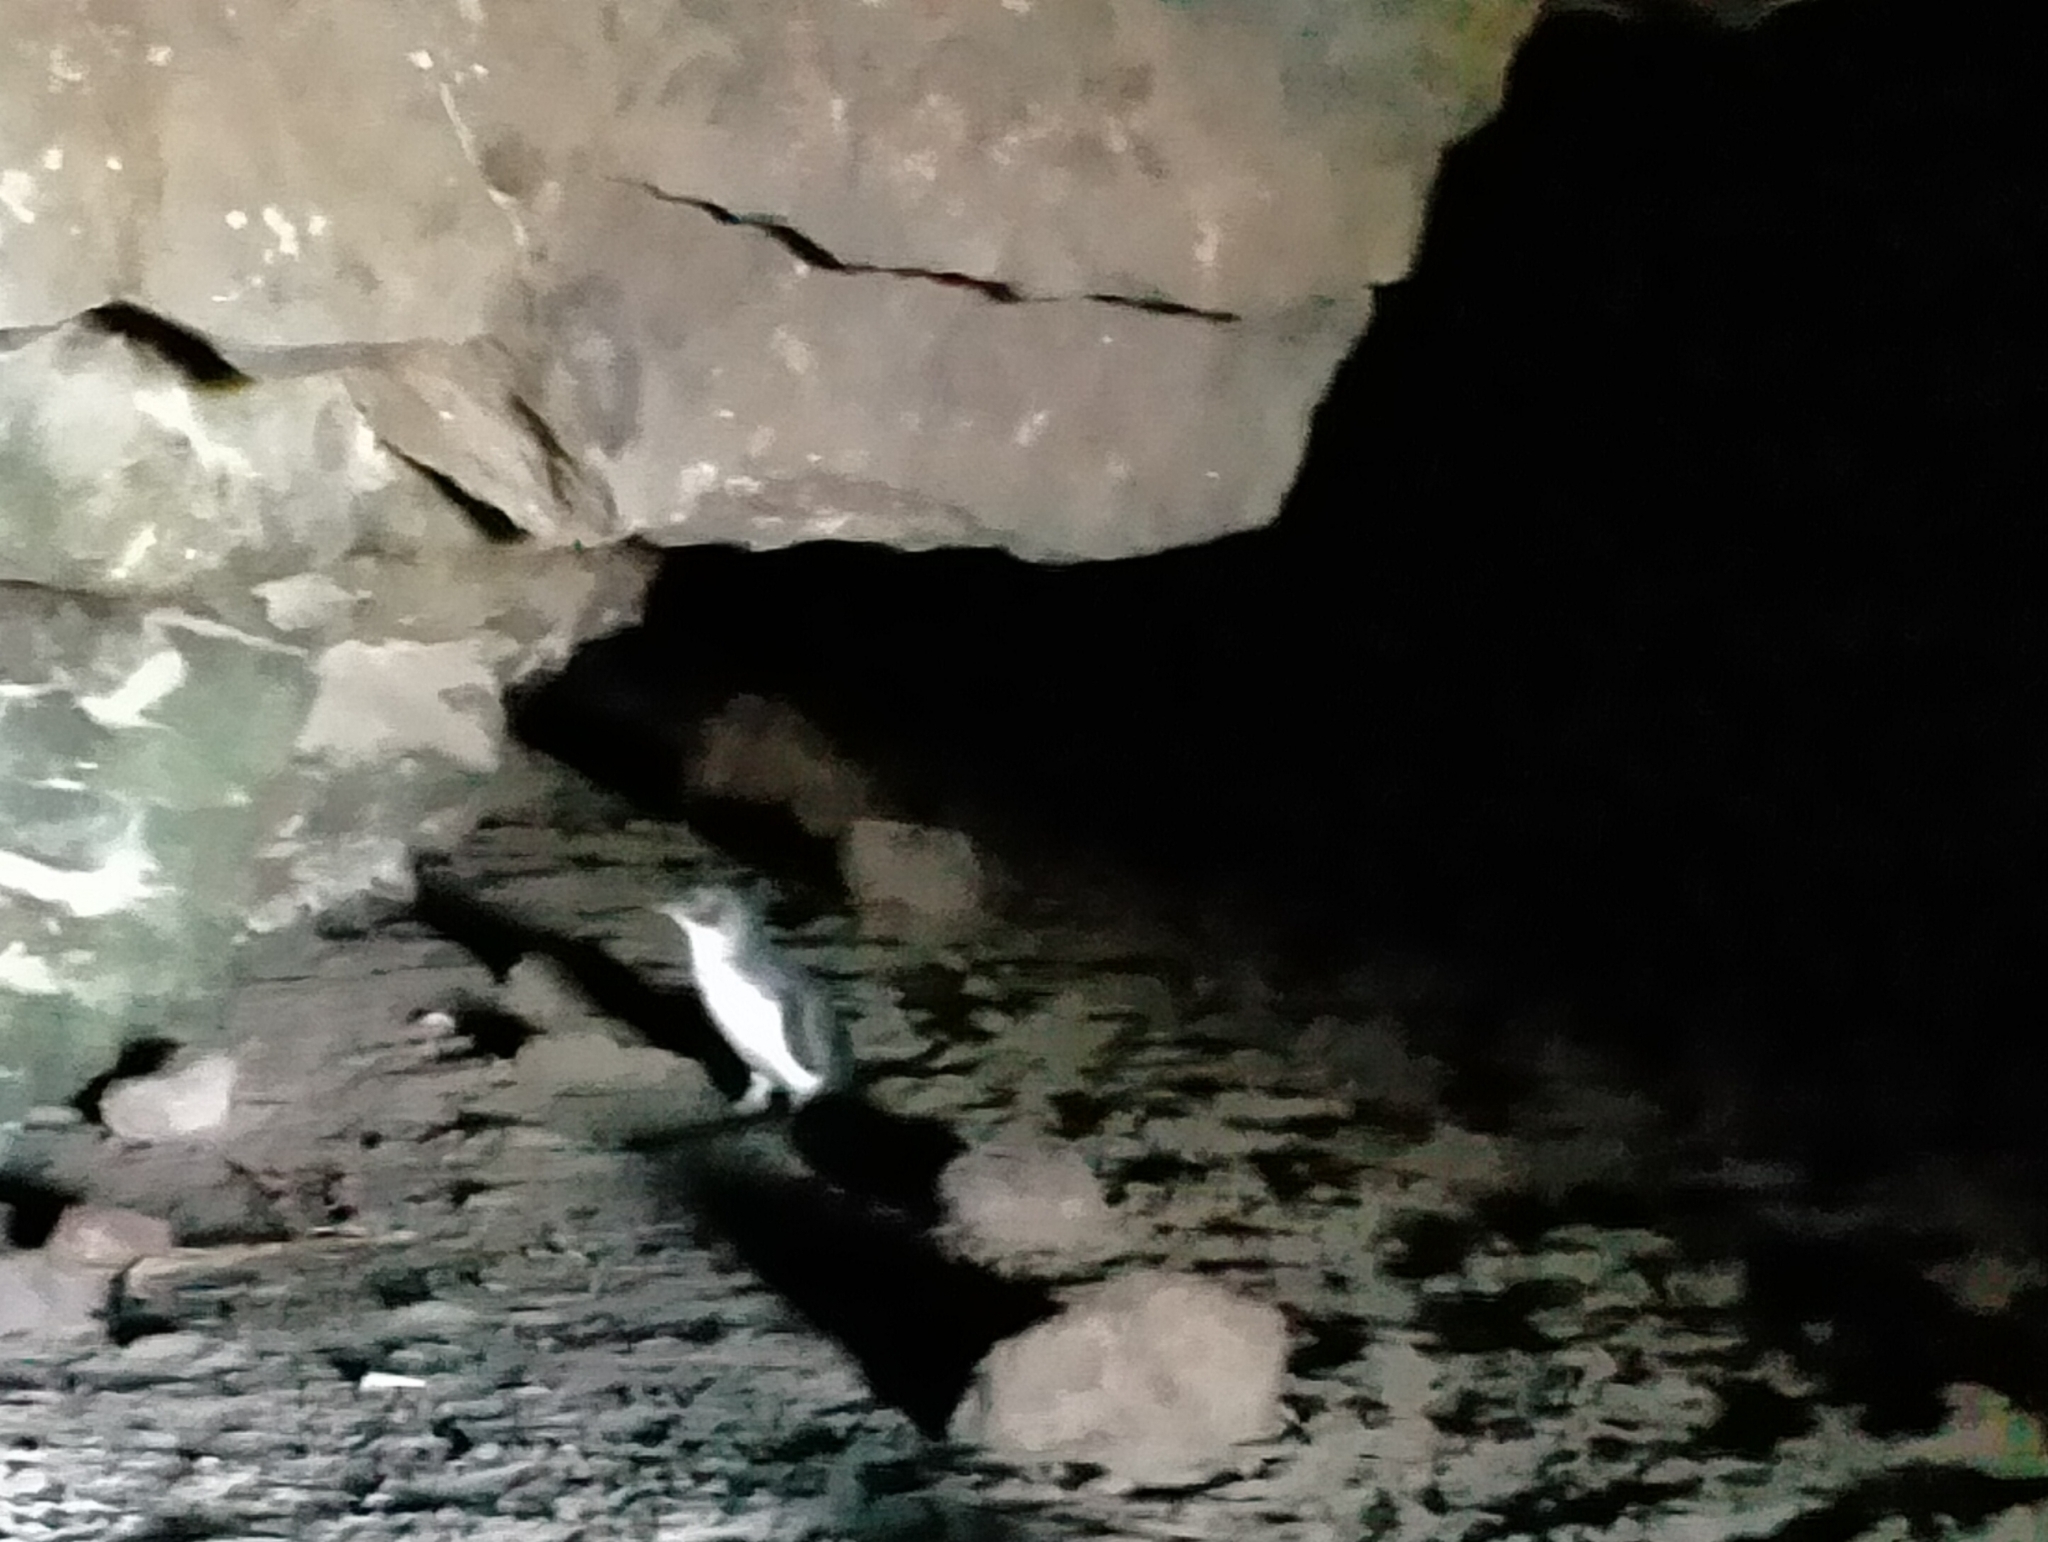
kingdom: Animalia
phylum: Chordata
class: Aves
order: Sphenisciformes
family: Spheniscidae
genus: Eudyptula
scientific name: Eudyptula minor
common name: Little penguin
